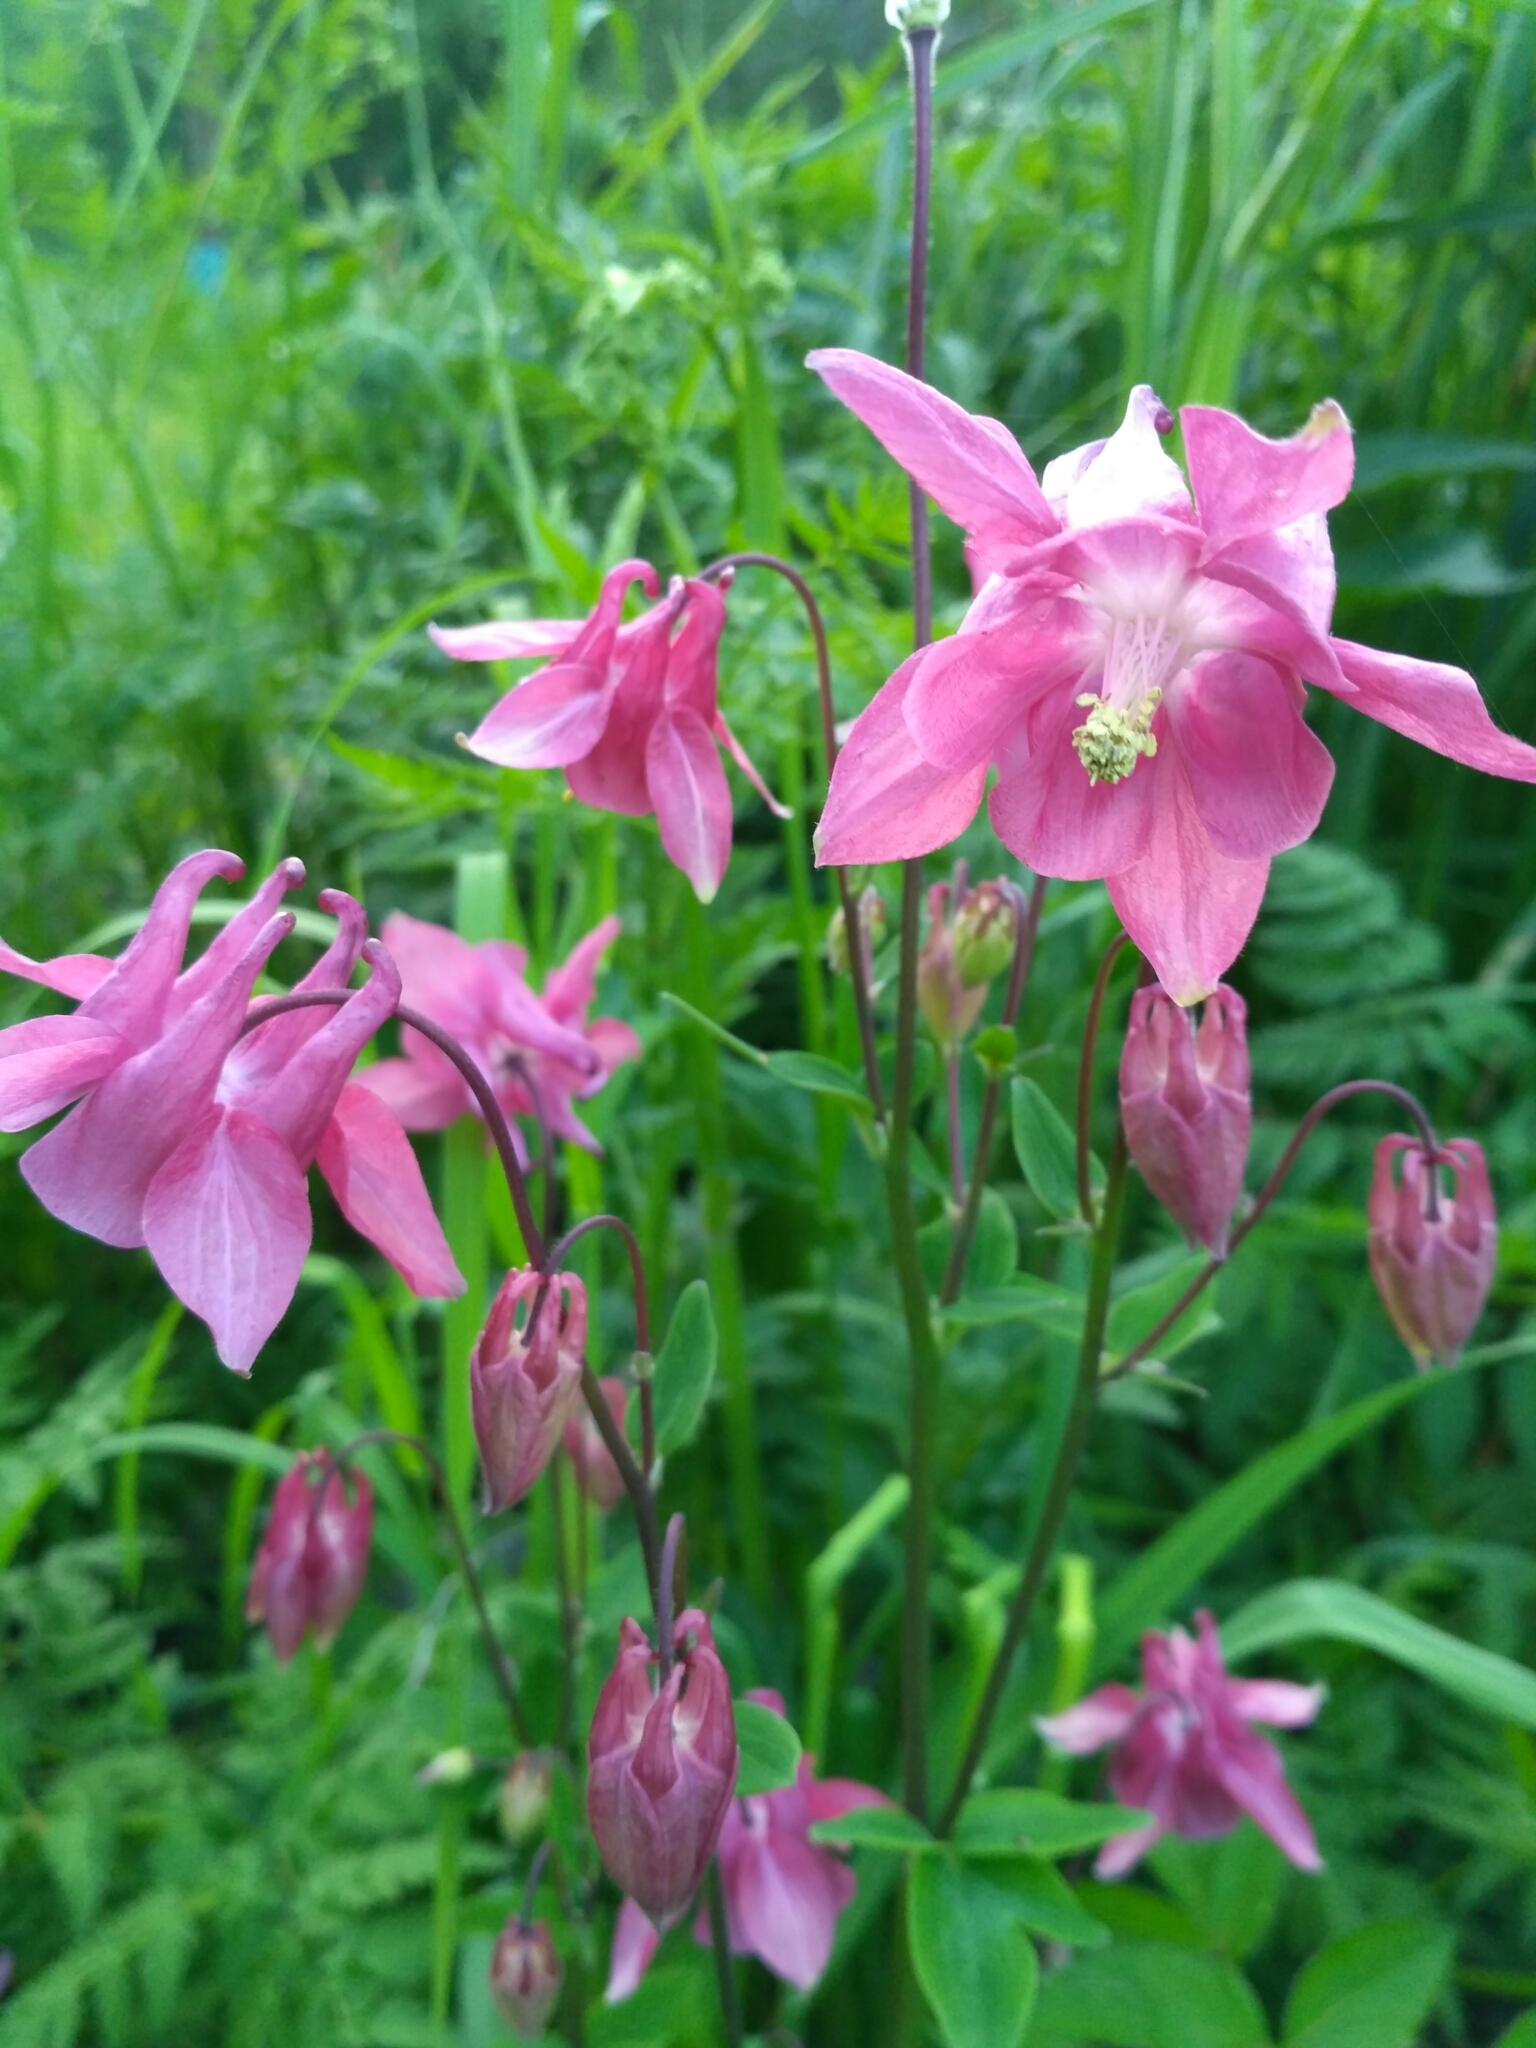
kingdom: Plantae
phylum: Tracheophyta
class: Magnoliopsida
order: Ranunculales
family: Ranunculaceae
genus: Aquilegia
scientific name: Aquilegia vulgaris
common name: Columbine
